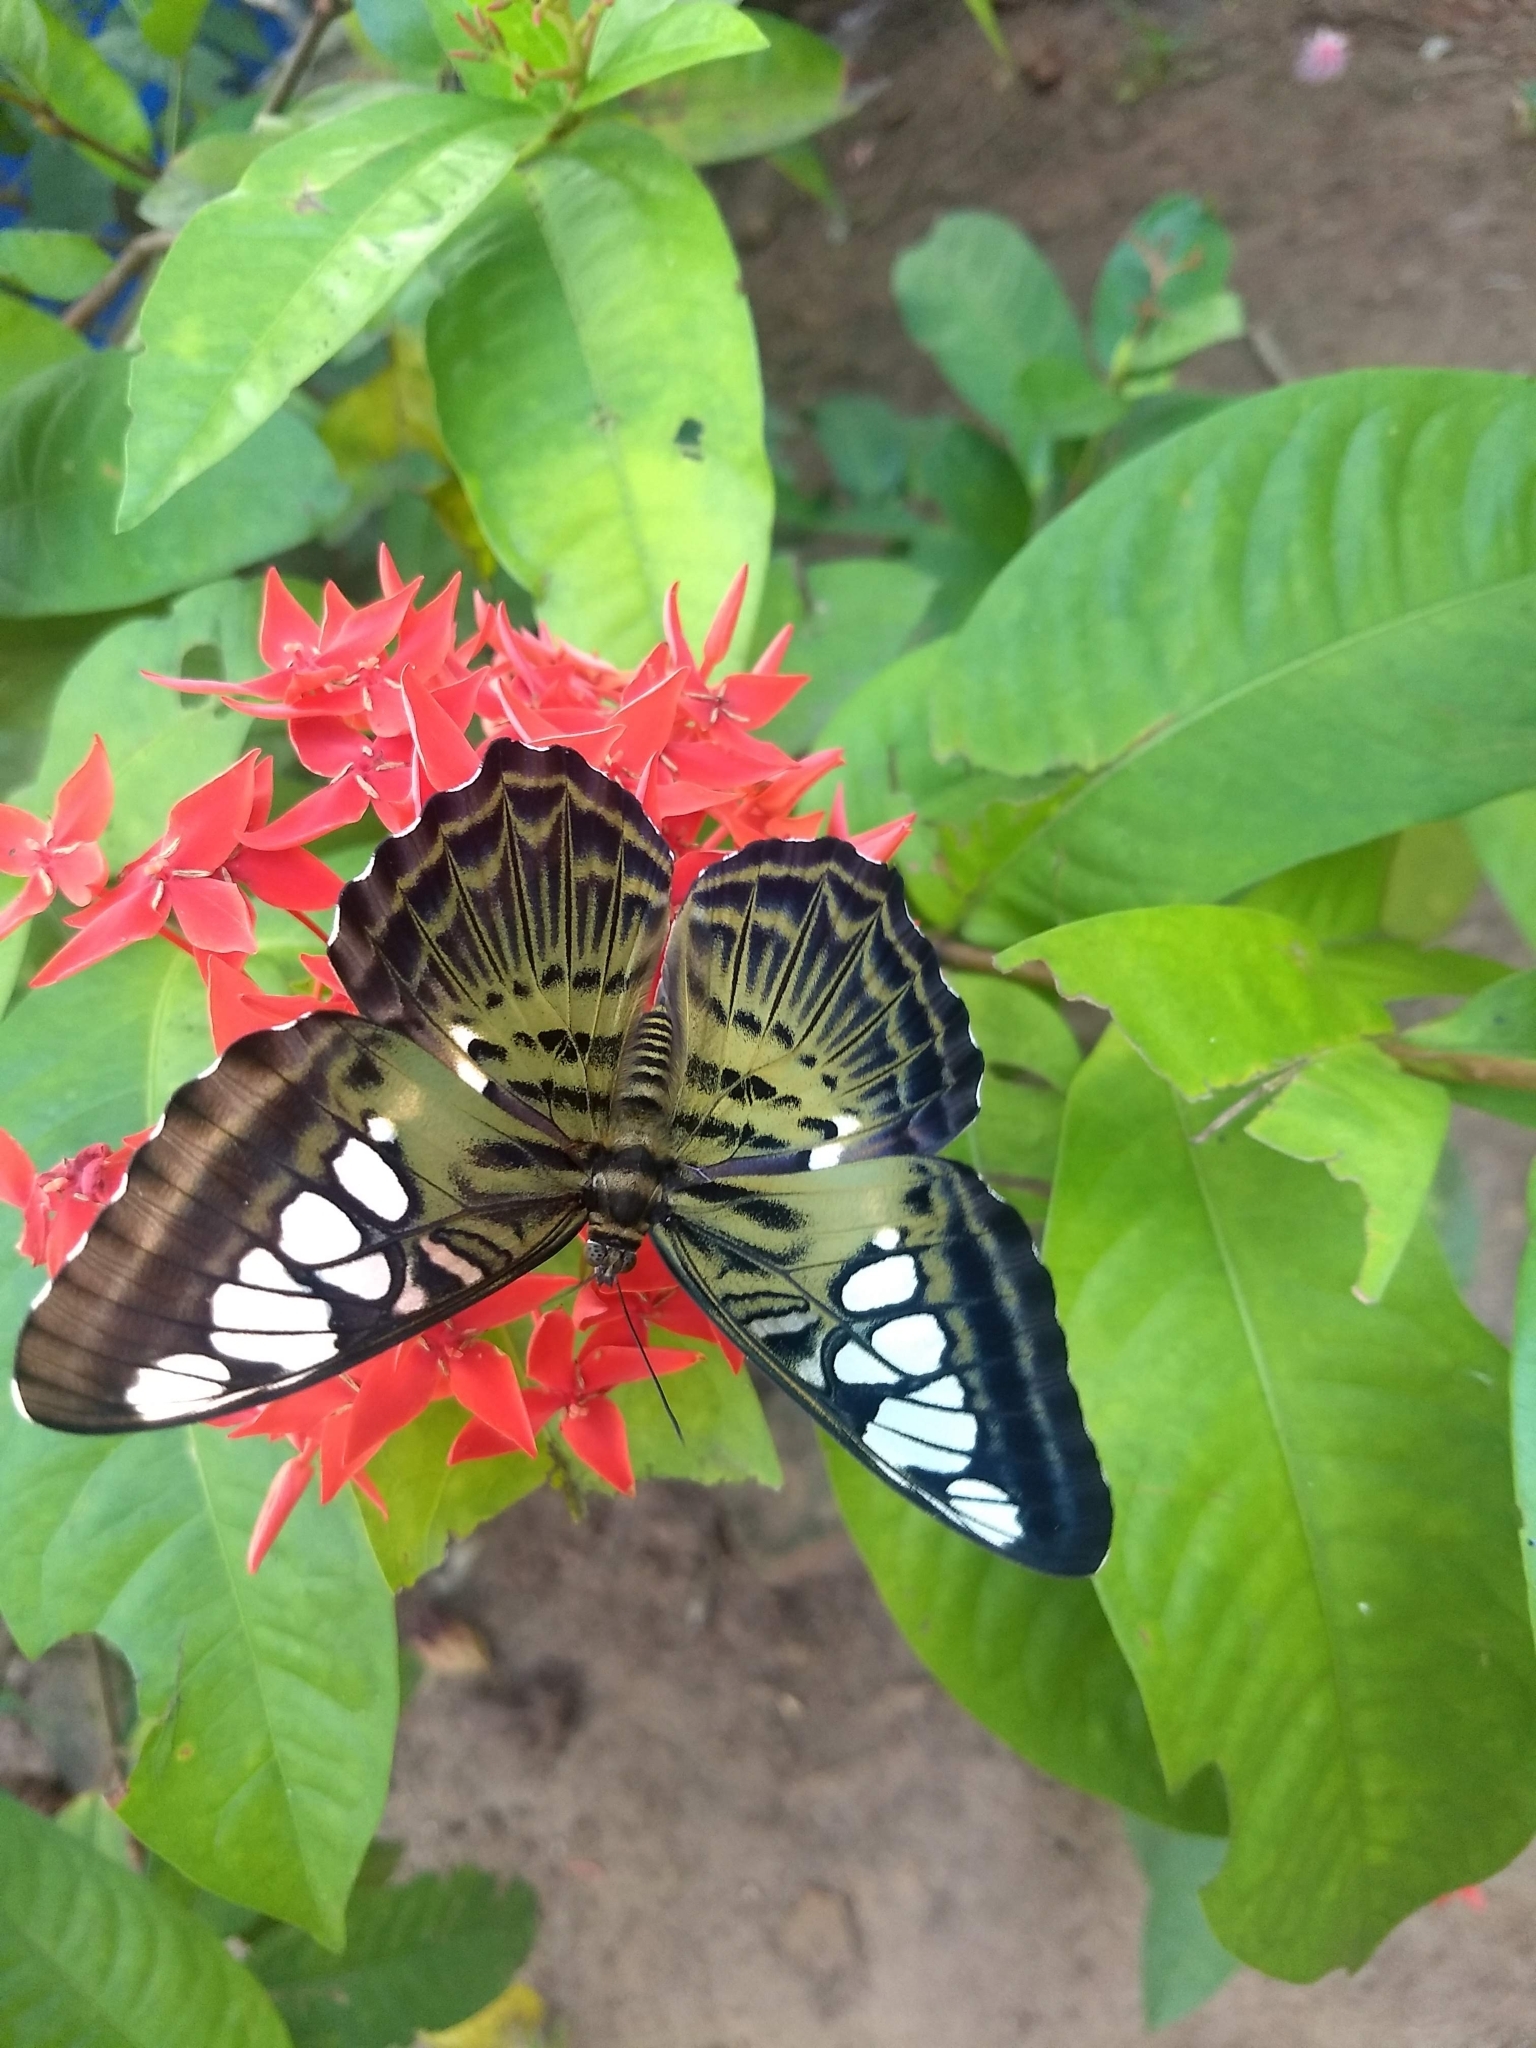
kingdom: Animalia
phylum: Arthropoda
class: Insecta
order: Lepidoptera
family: Nymphalidae
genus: Kallima
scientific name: Kallima sylvia
